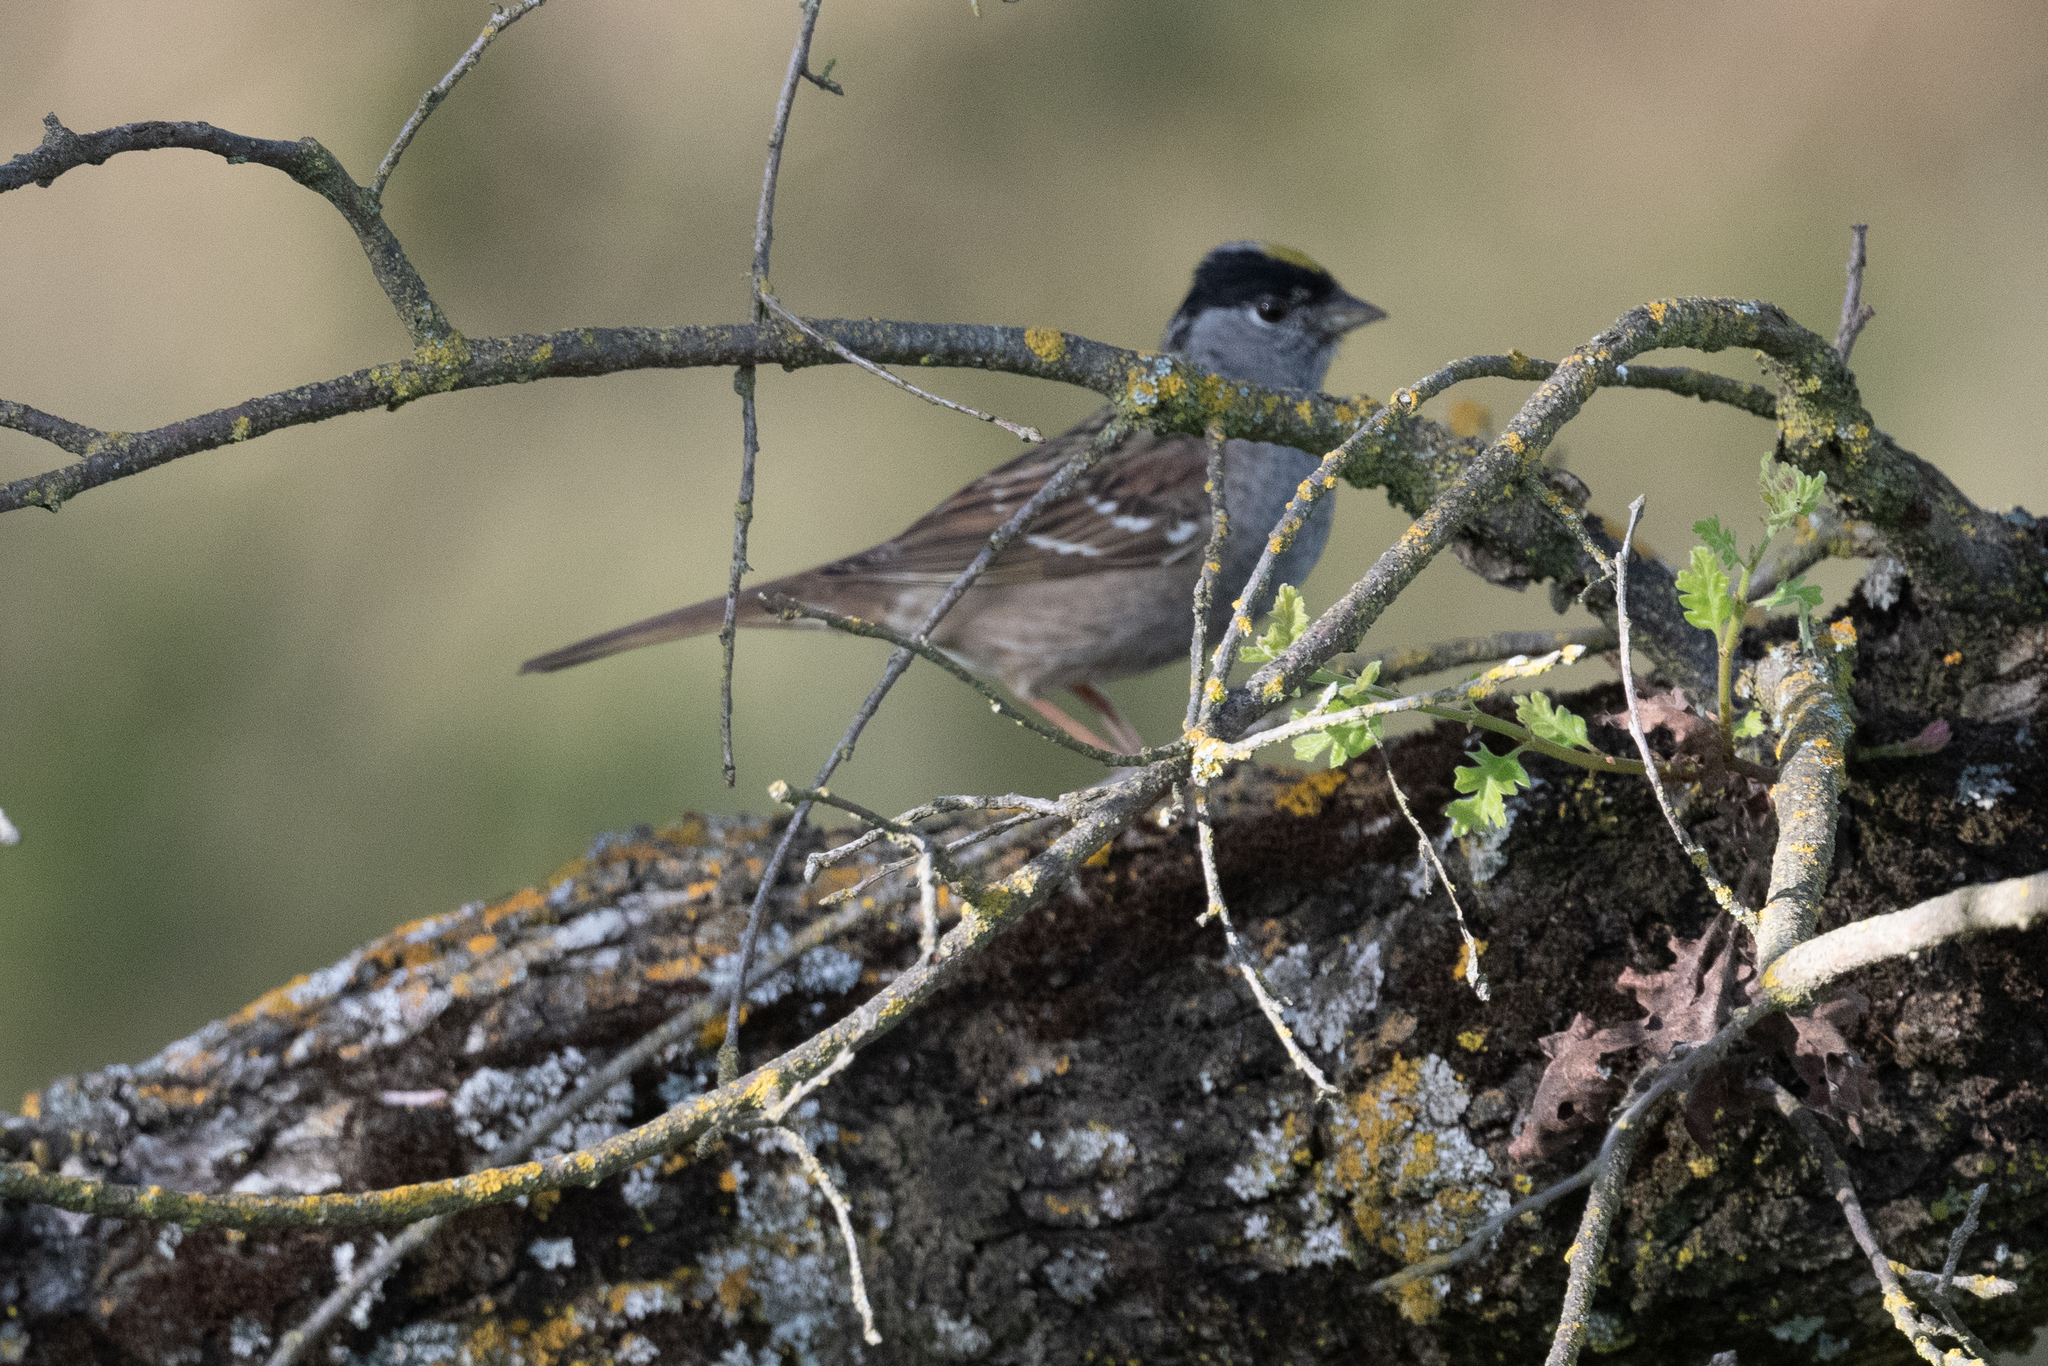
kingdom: Animalia
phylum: Chordata
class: Aves
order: Passeriformes
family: Passerellidae
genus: Zonotrichia
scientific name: Zonotrichia atricapilla
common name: Golden-crowned sparrow
